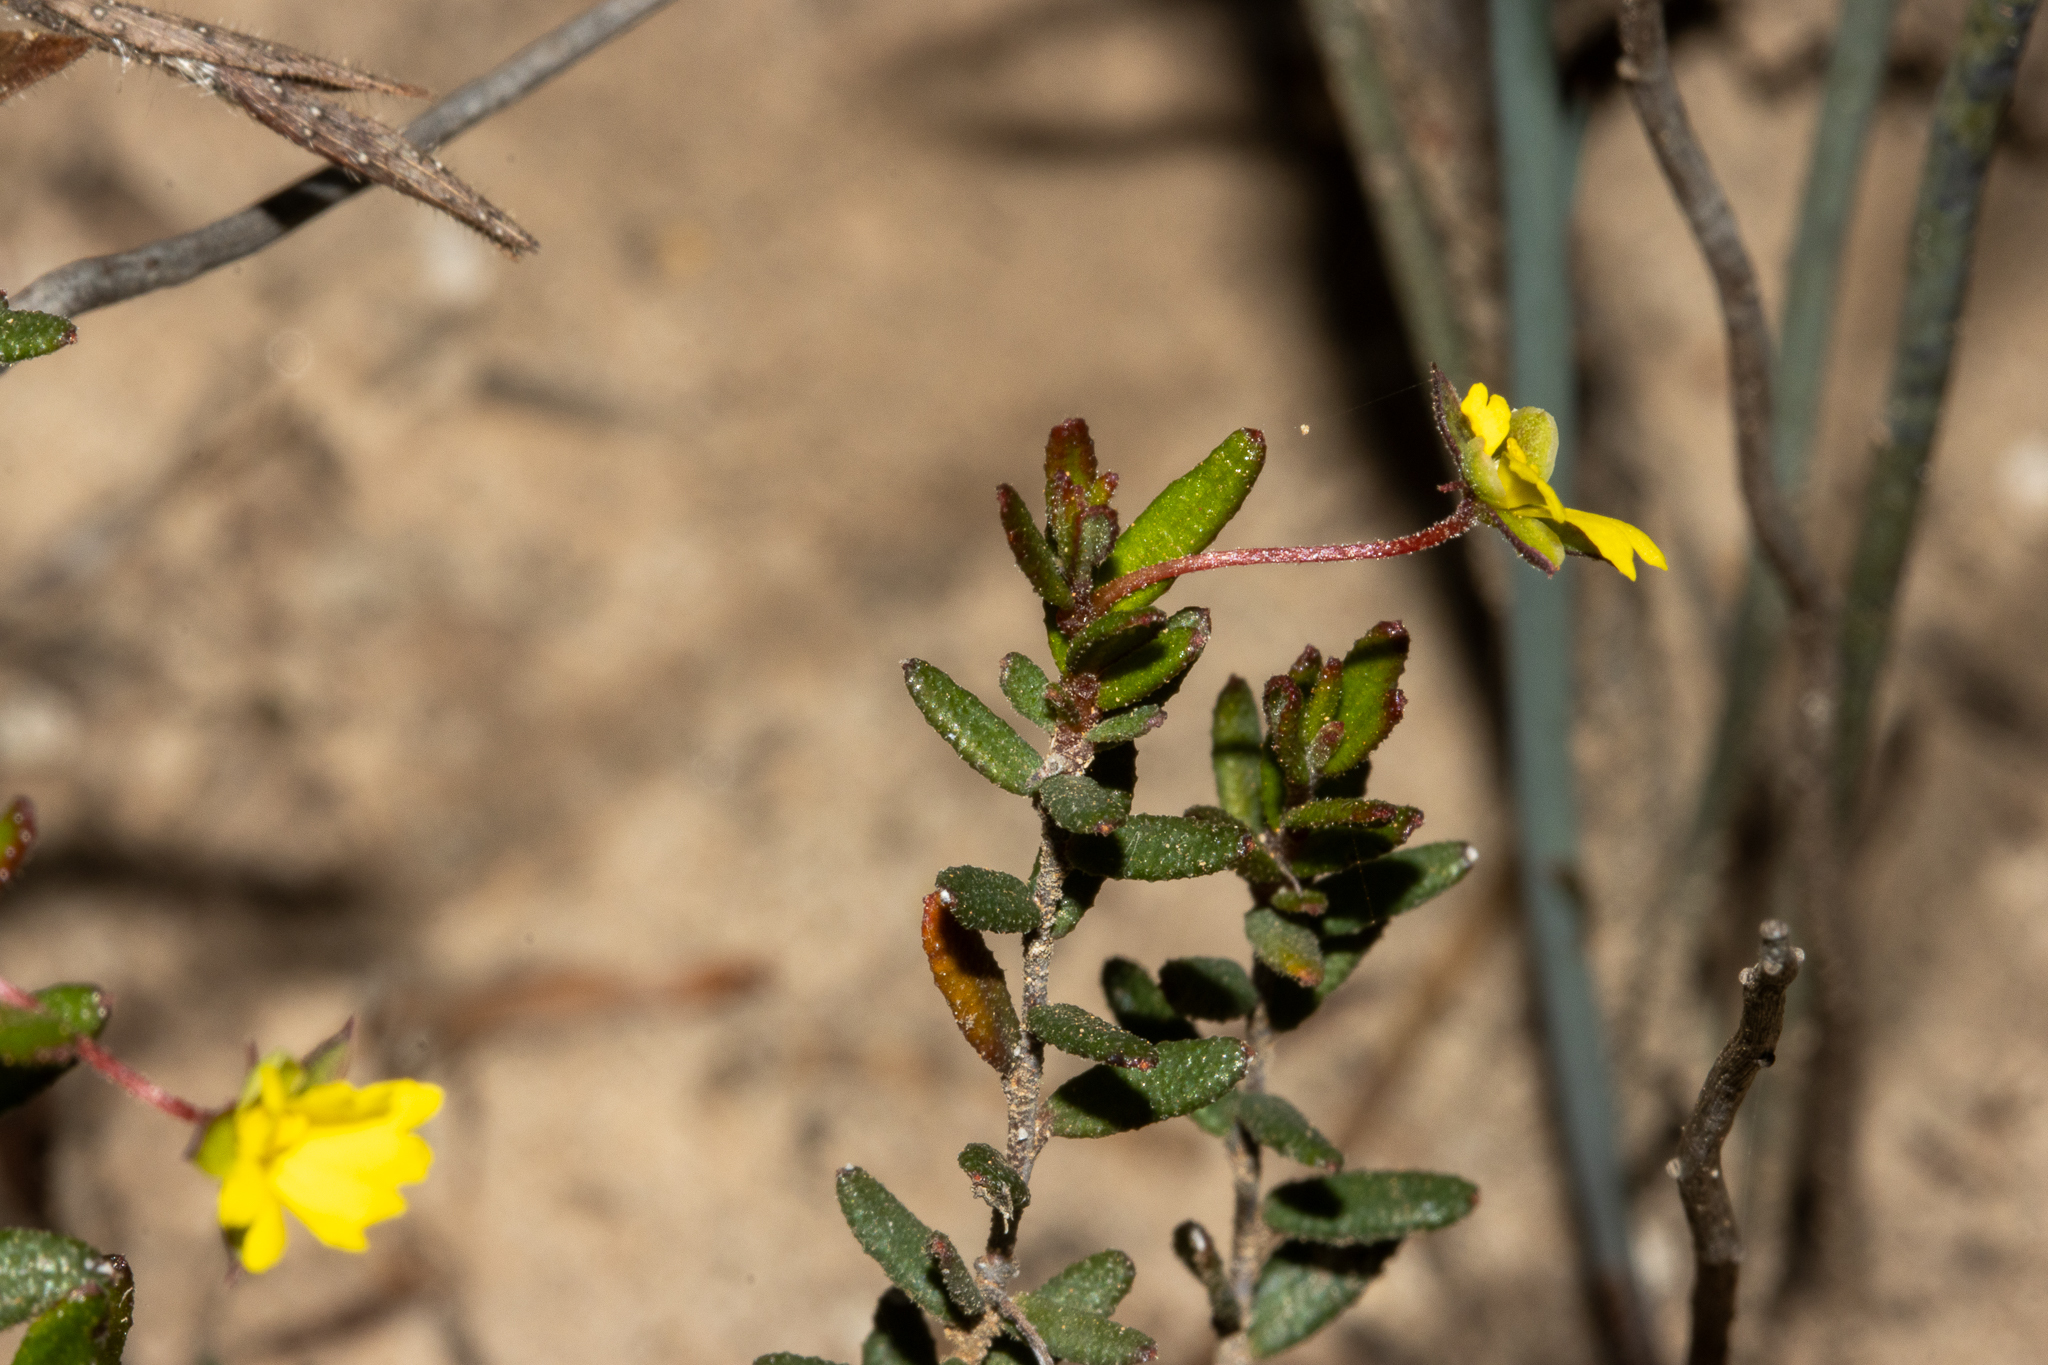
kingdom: Plantae
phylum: Tracheophyta
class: Magnoliopsida
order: Dilleniales
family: Dilleniaceae
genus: Hibbertia
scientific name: Hibbertia
